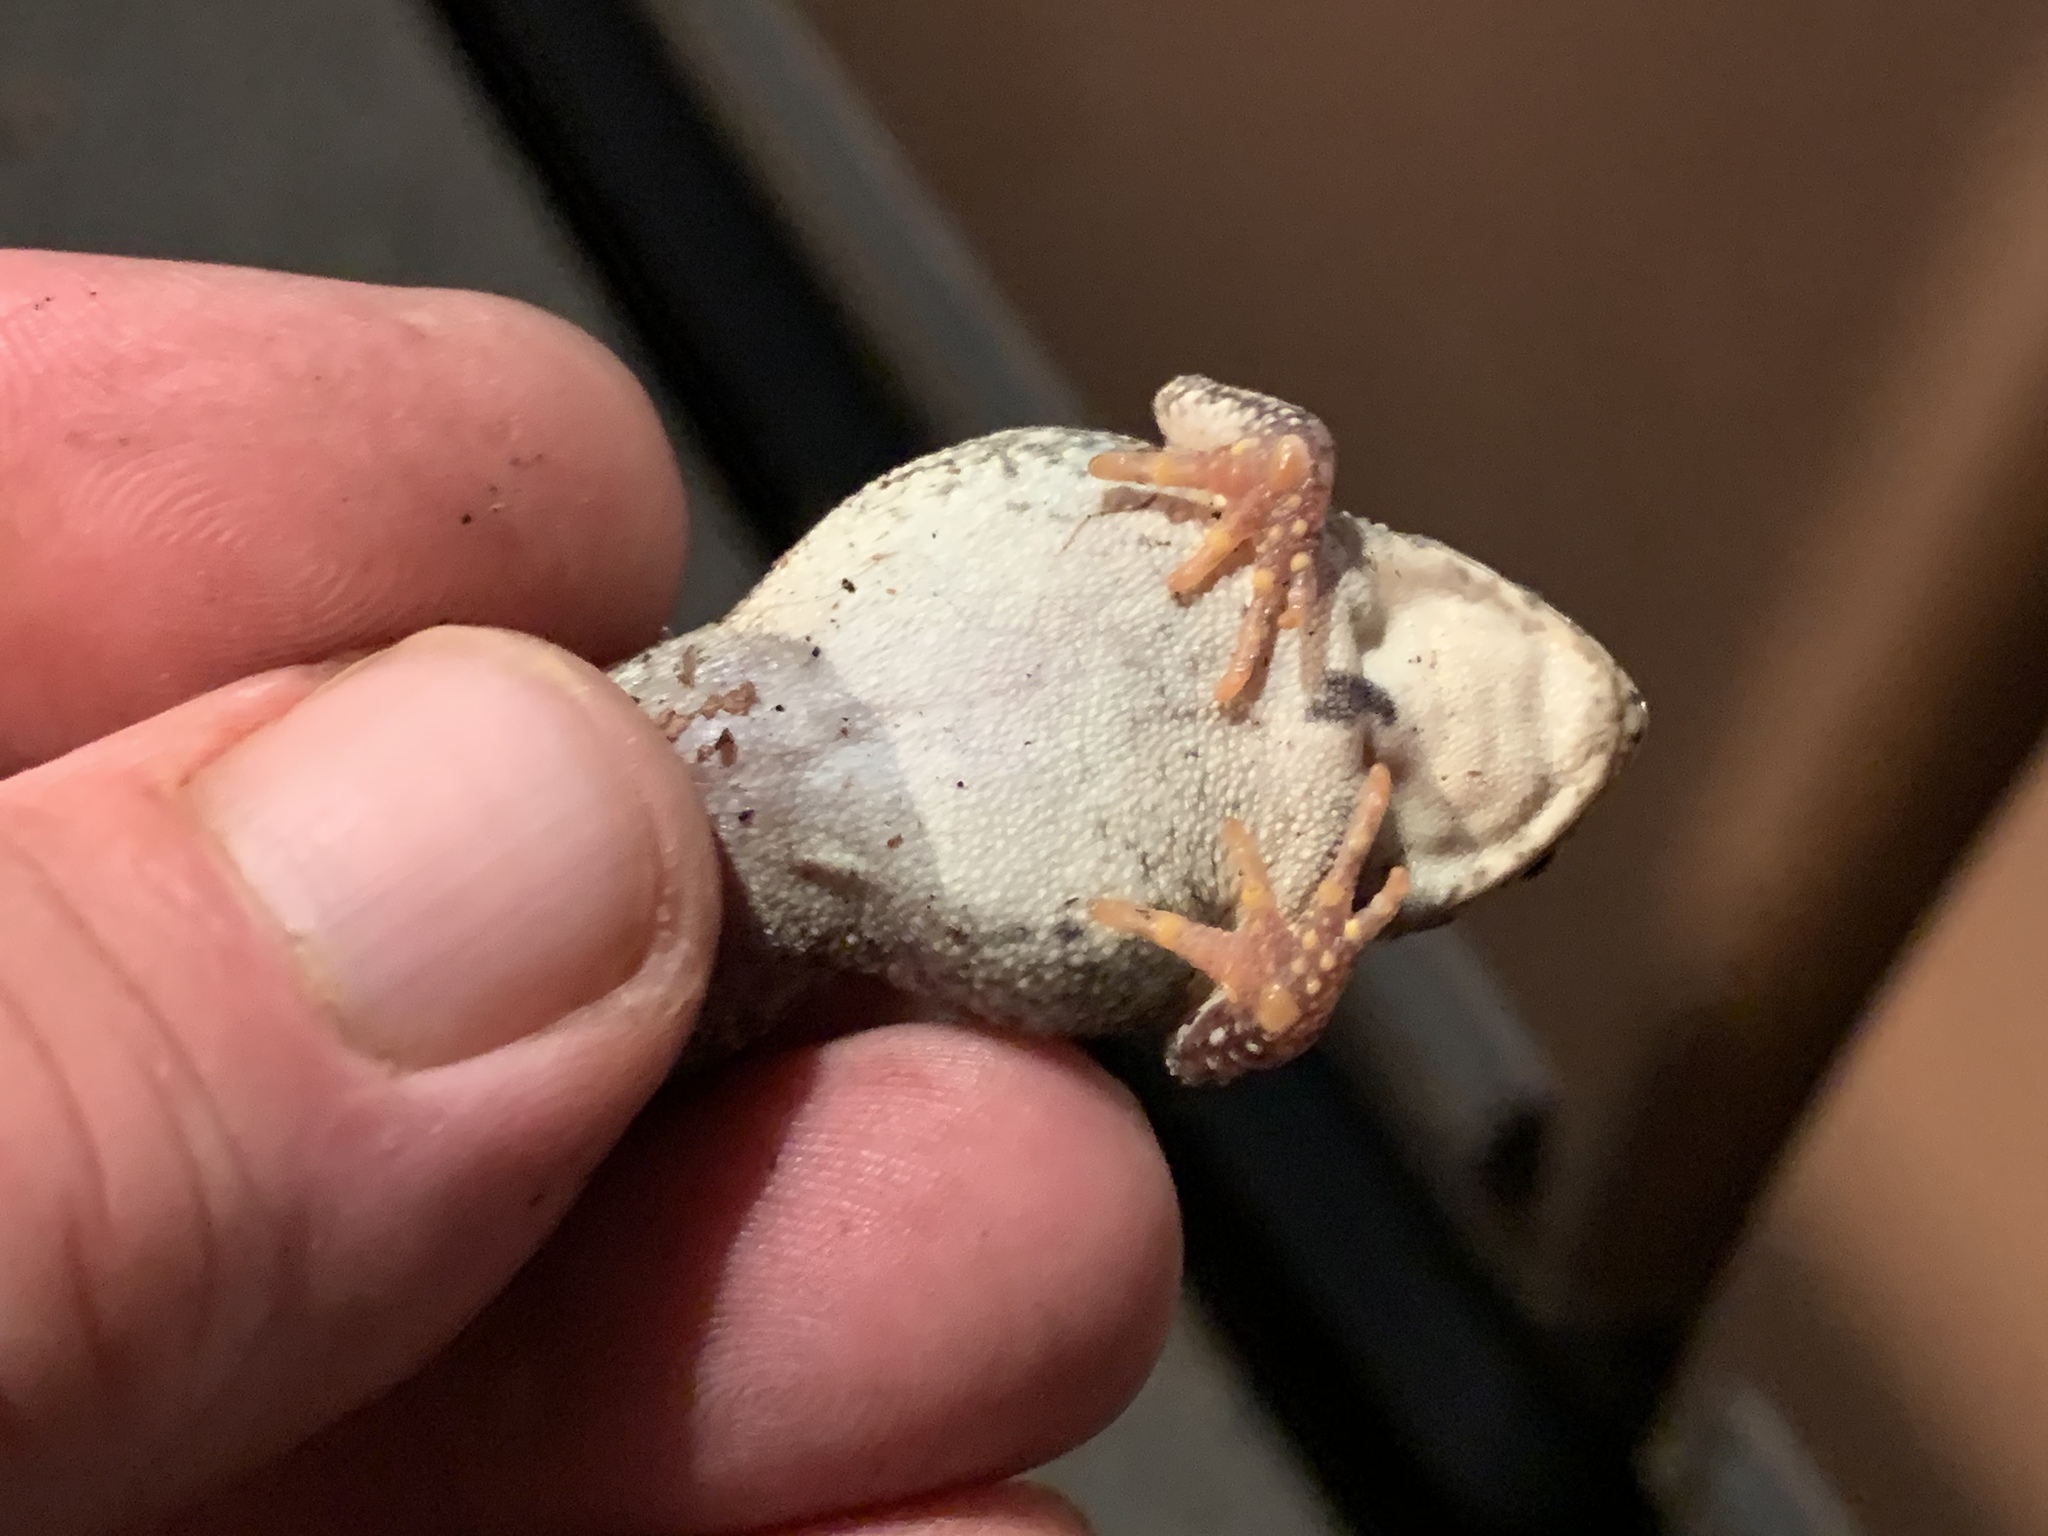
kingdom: Animalia
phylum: Chordata
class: Amphibia
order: Anura
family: Bufonidae
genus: Anaxyrus
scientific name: Anaxyrus fowleri
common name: Fowler's toad
